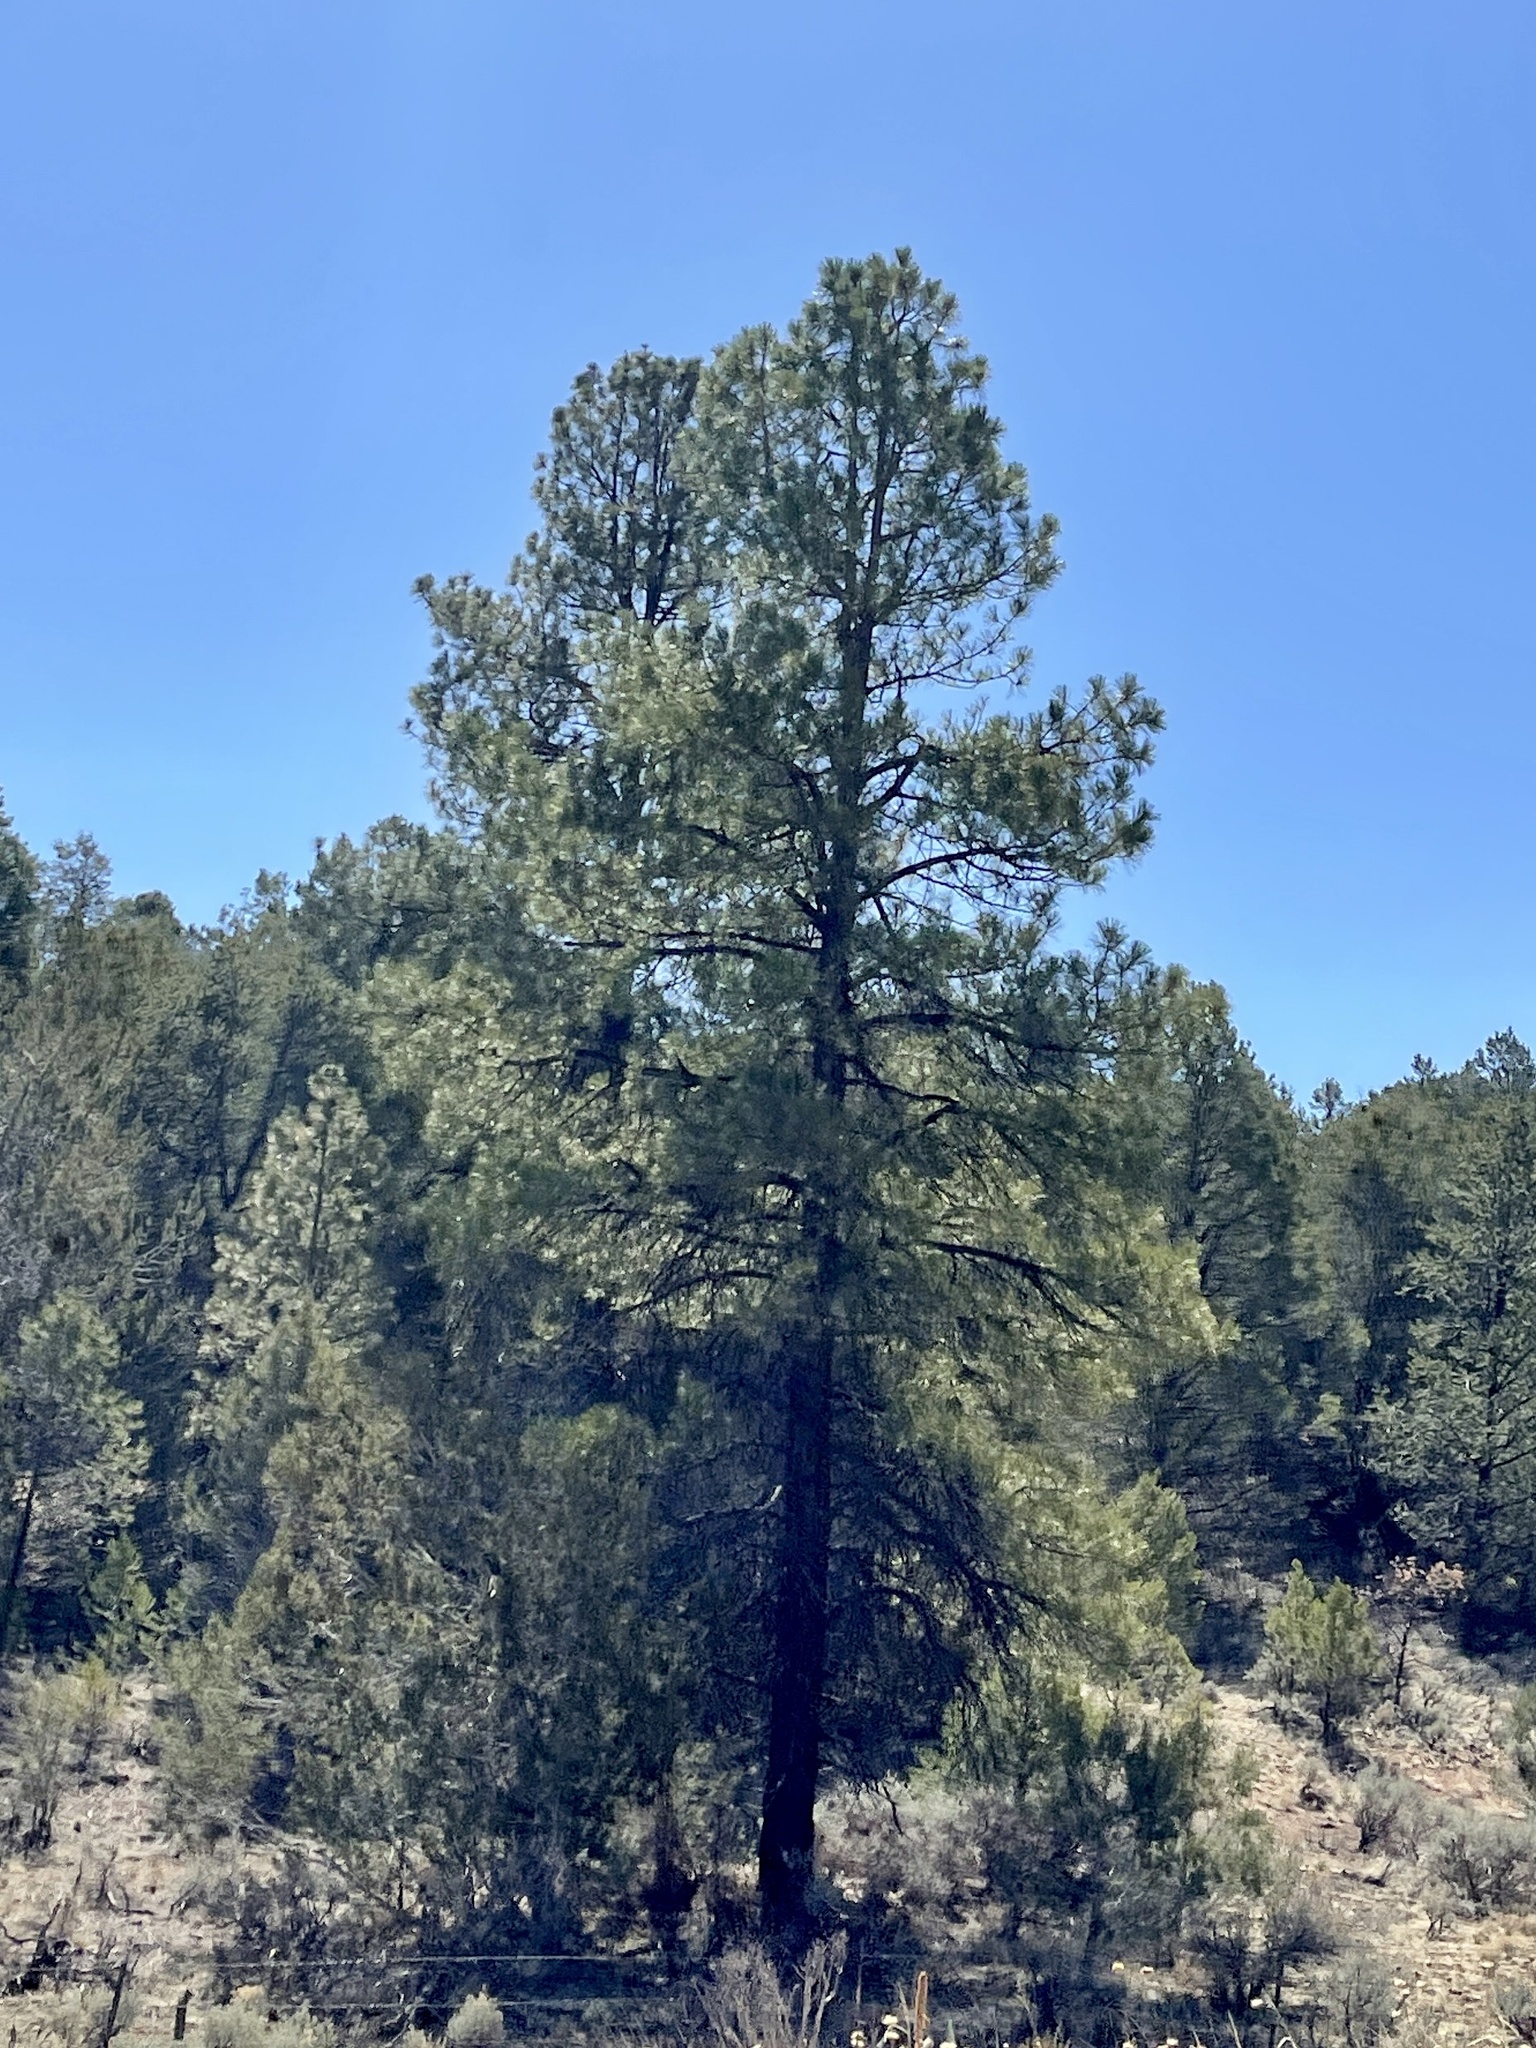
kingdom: Plantae
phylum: Tracheophyta
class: Pinopsida
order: Pinales
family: Pinaceae
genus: Pinus
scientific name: Pinus ponderosa
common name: Western yellow-pine
